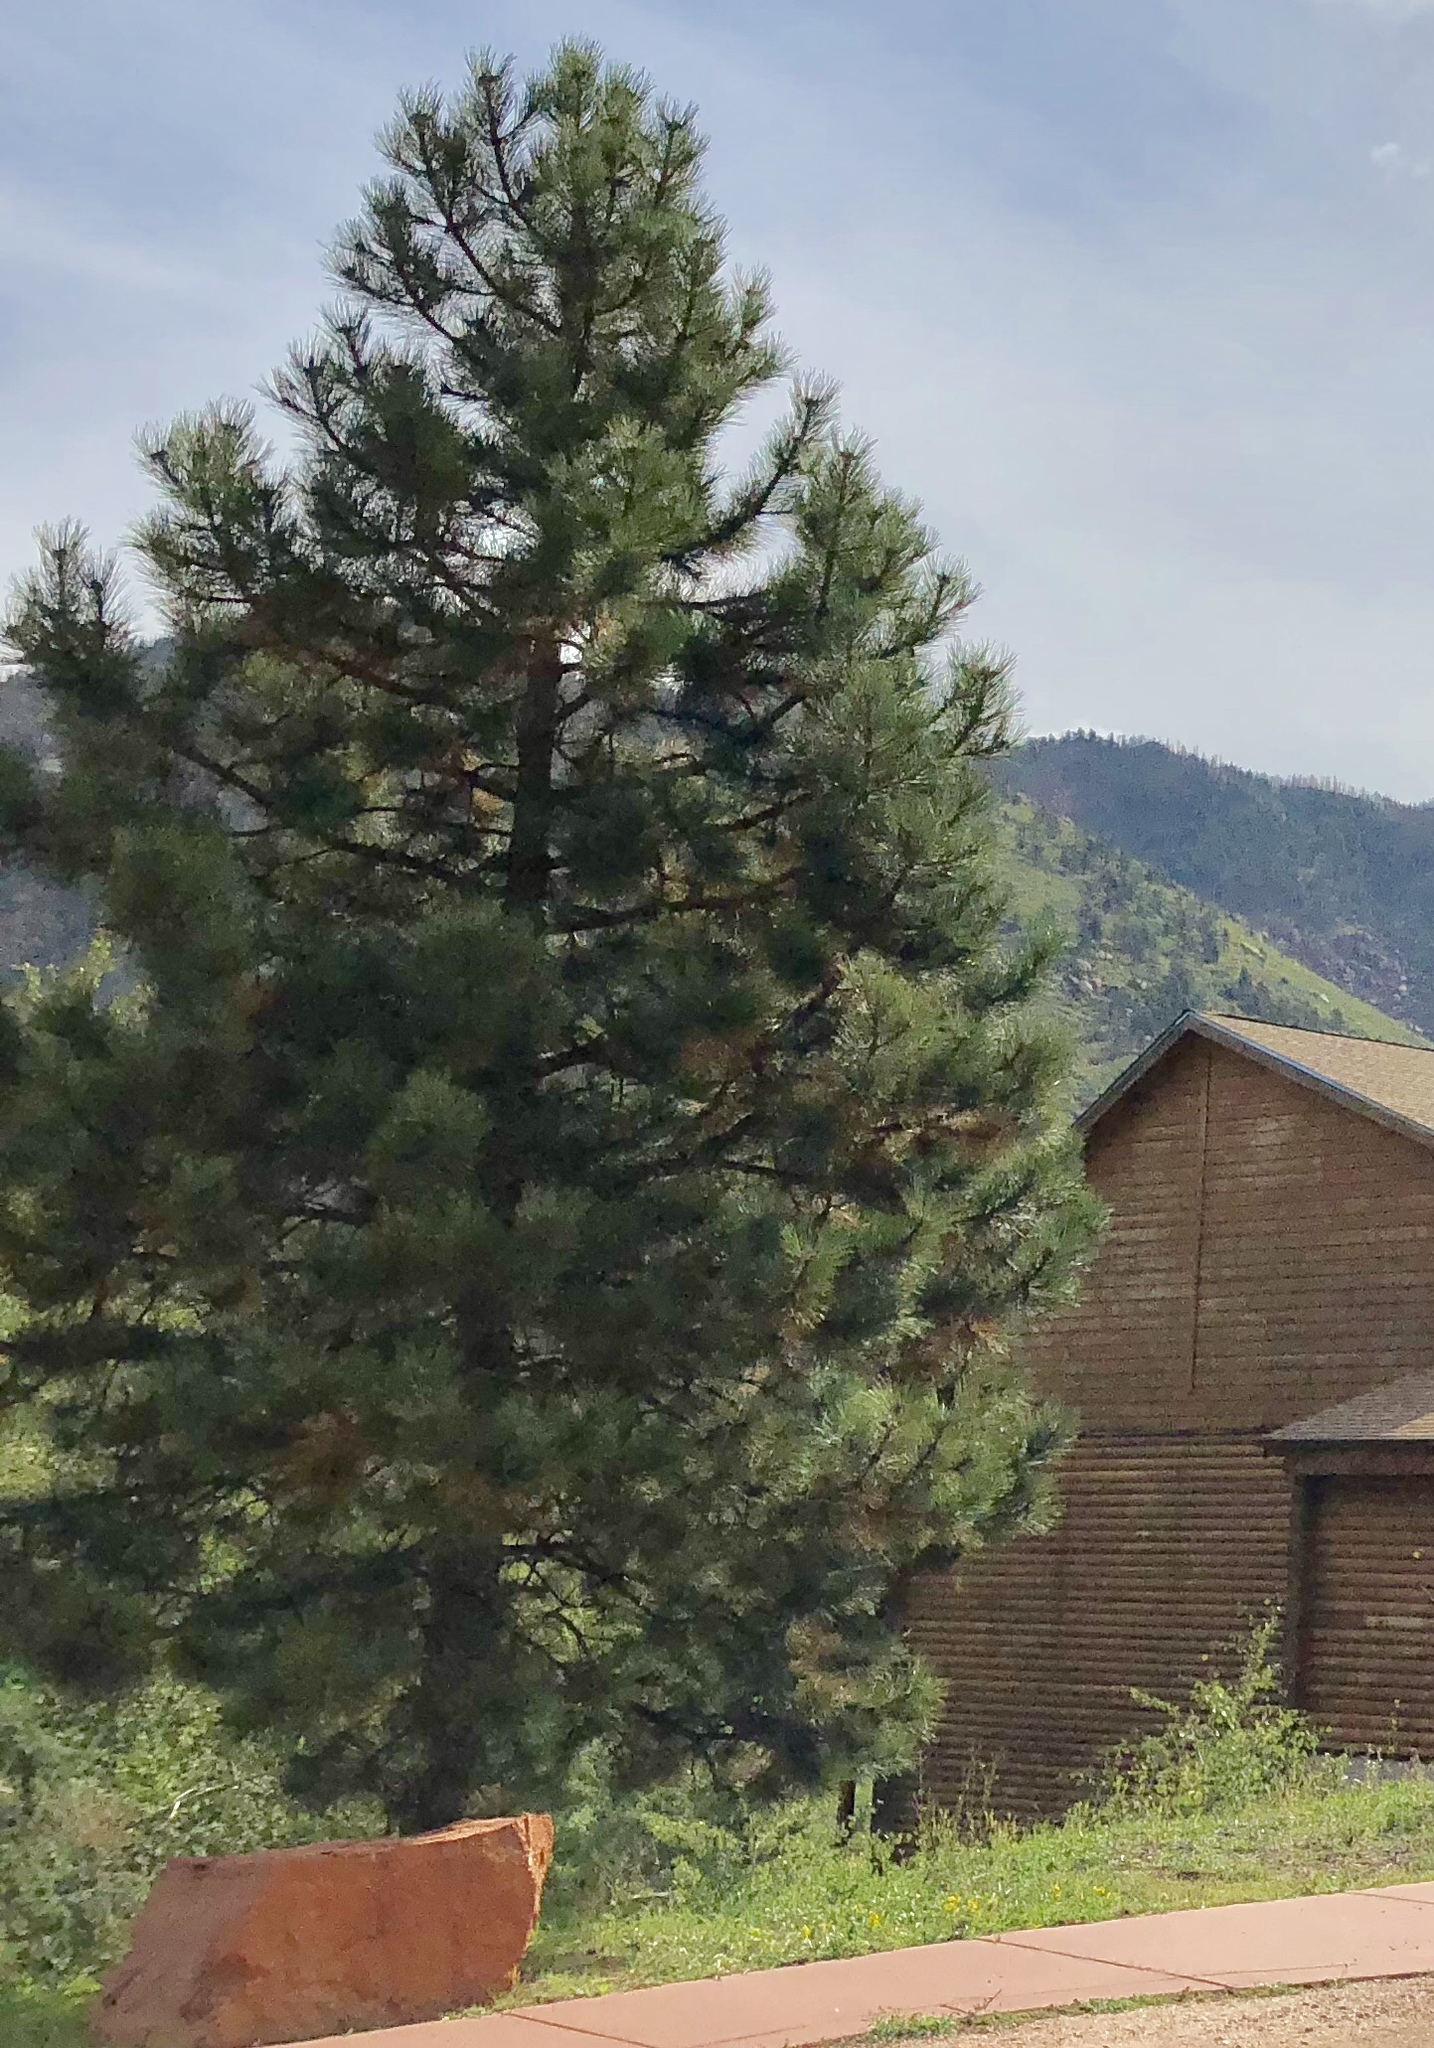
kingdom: Plantae
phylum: Tracheophyta
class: Pinopsida
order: Pinales
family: Pinaceae
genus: Pinus
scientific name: Pinus ponderosa
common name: Western yellow-pine
